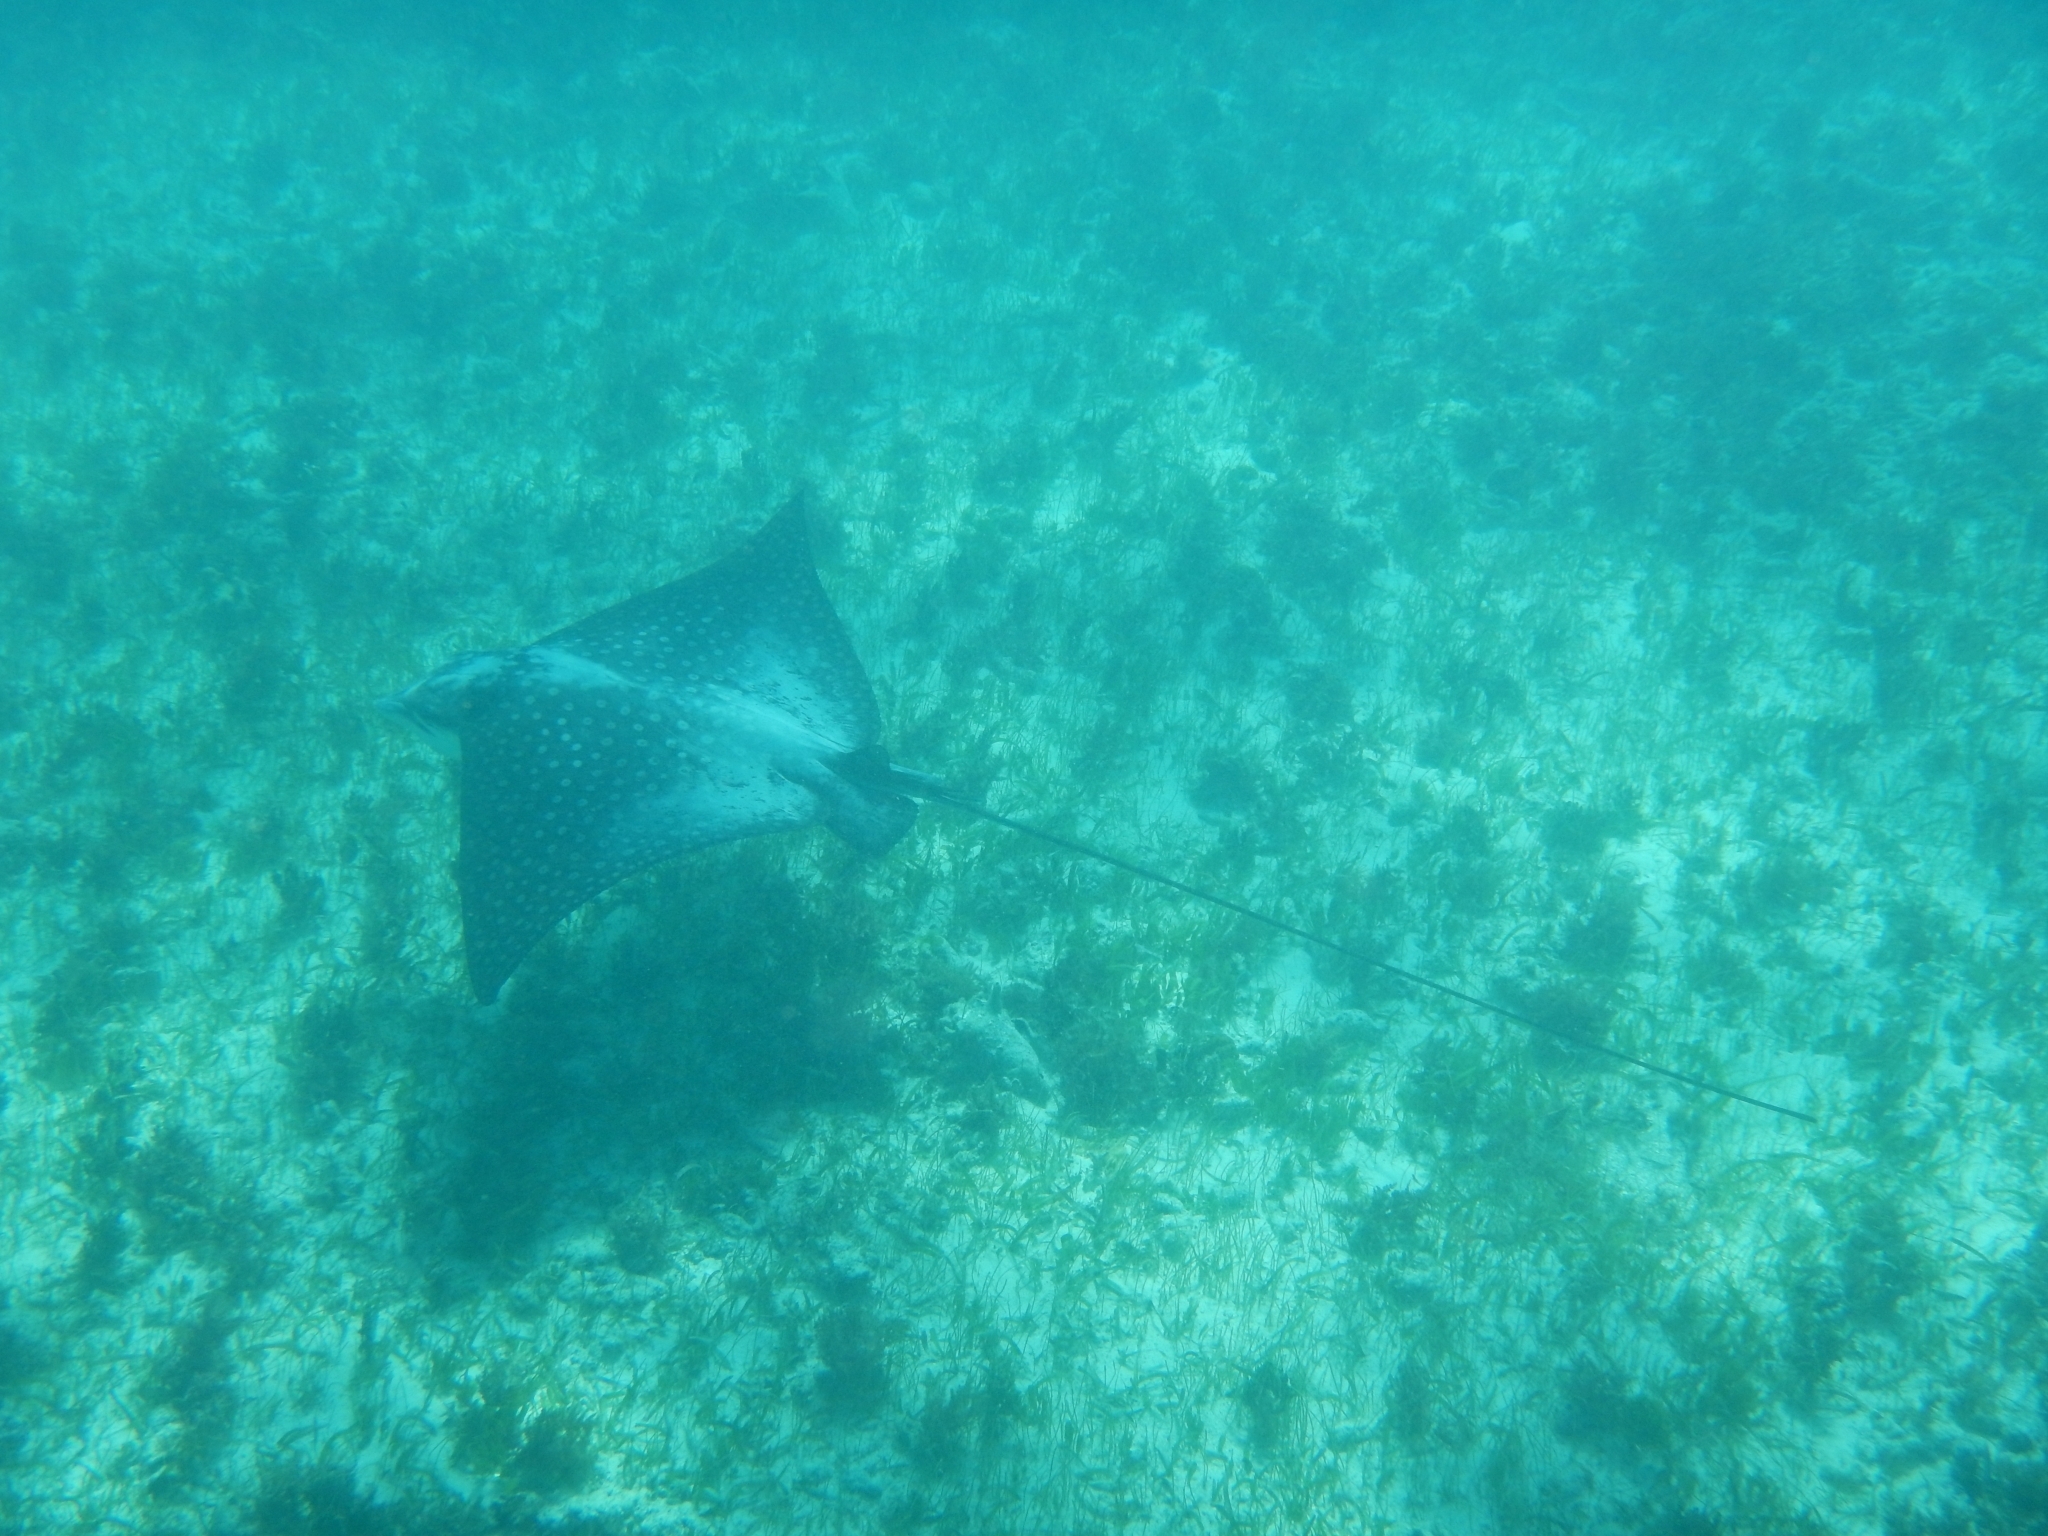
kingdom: Animalia
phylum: Chordata
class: Elasmobranchii
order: Myliobatiformes
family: Myliobatidae
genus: Aetobatus
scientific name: Aetobatus narinari
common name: Spotted eagle ray
